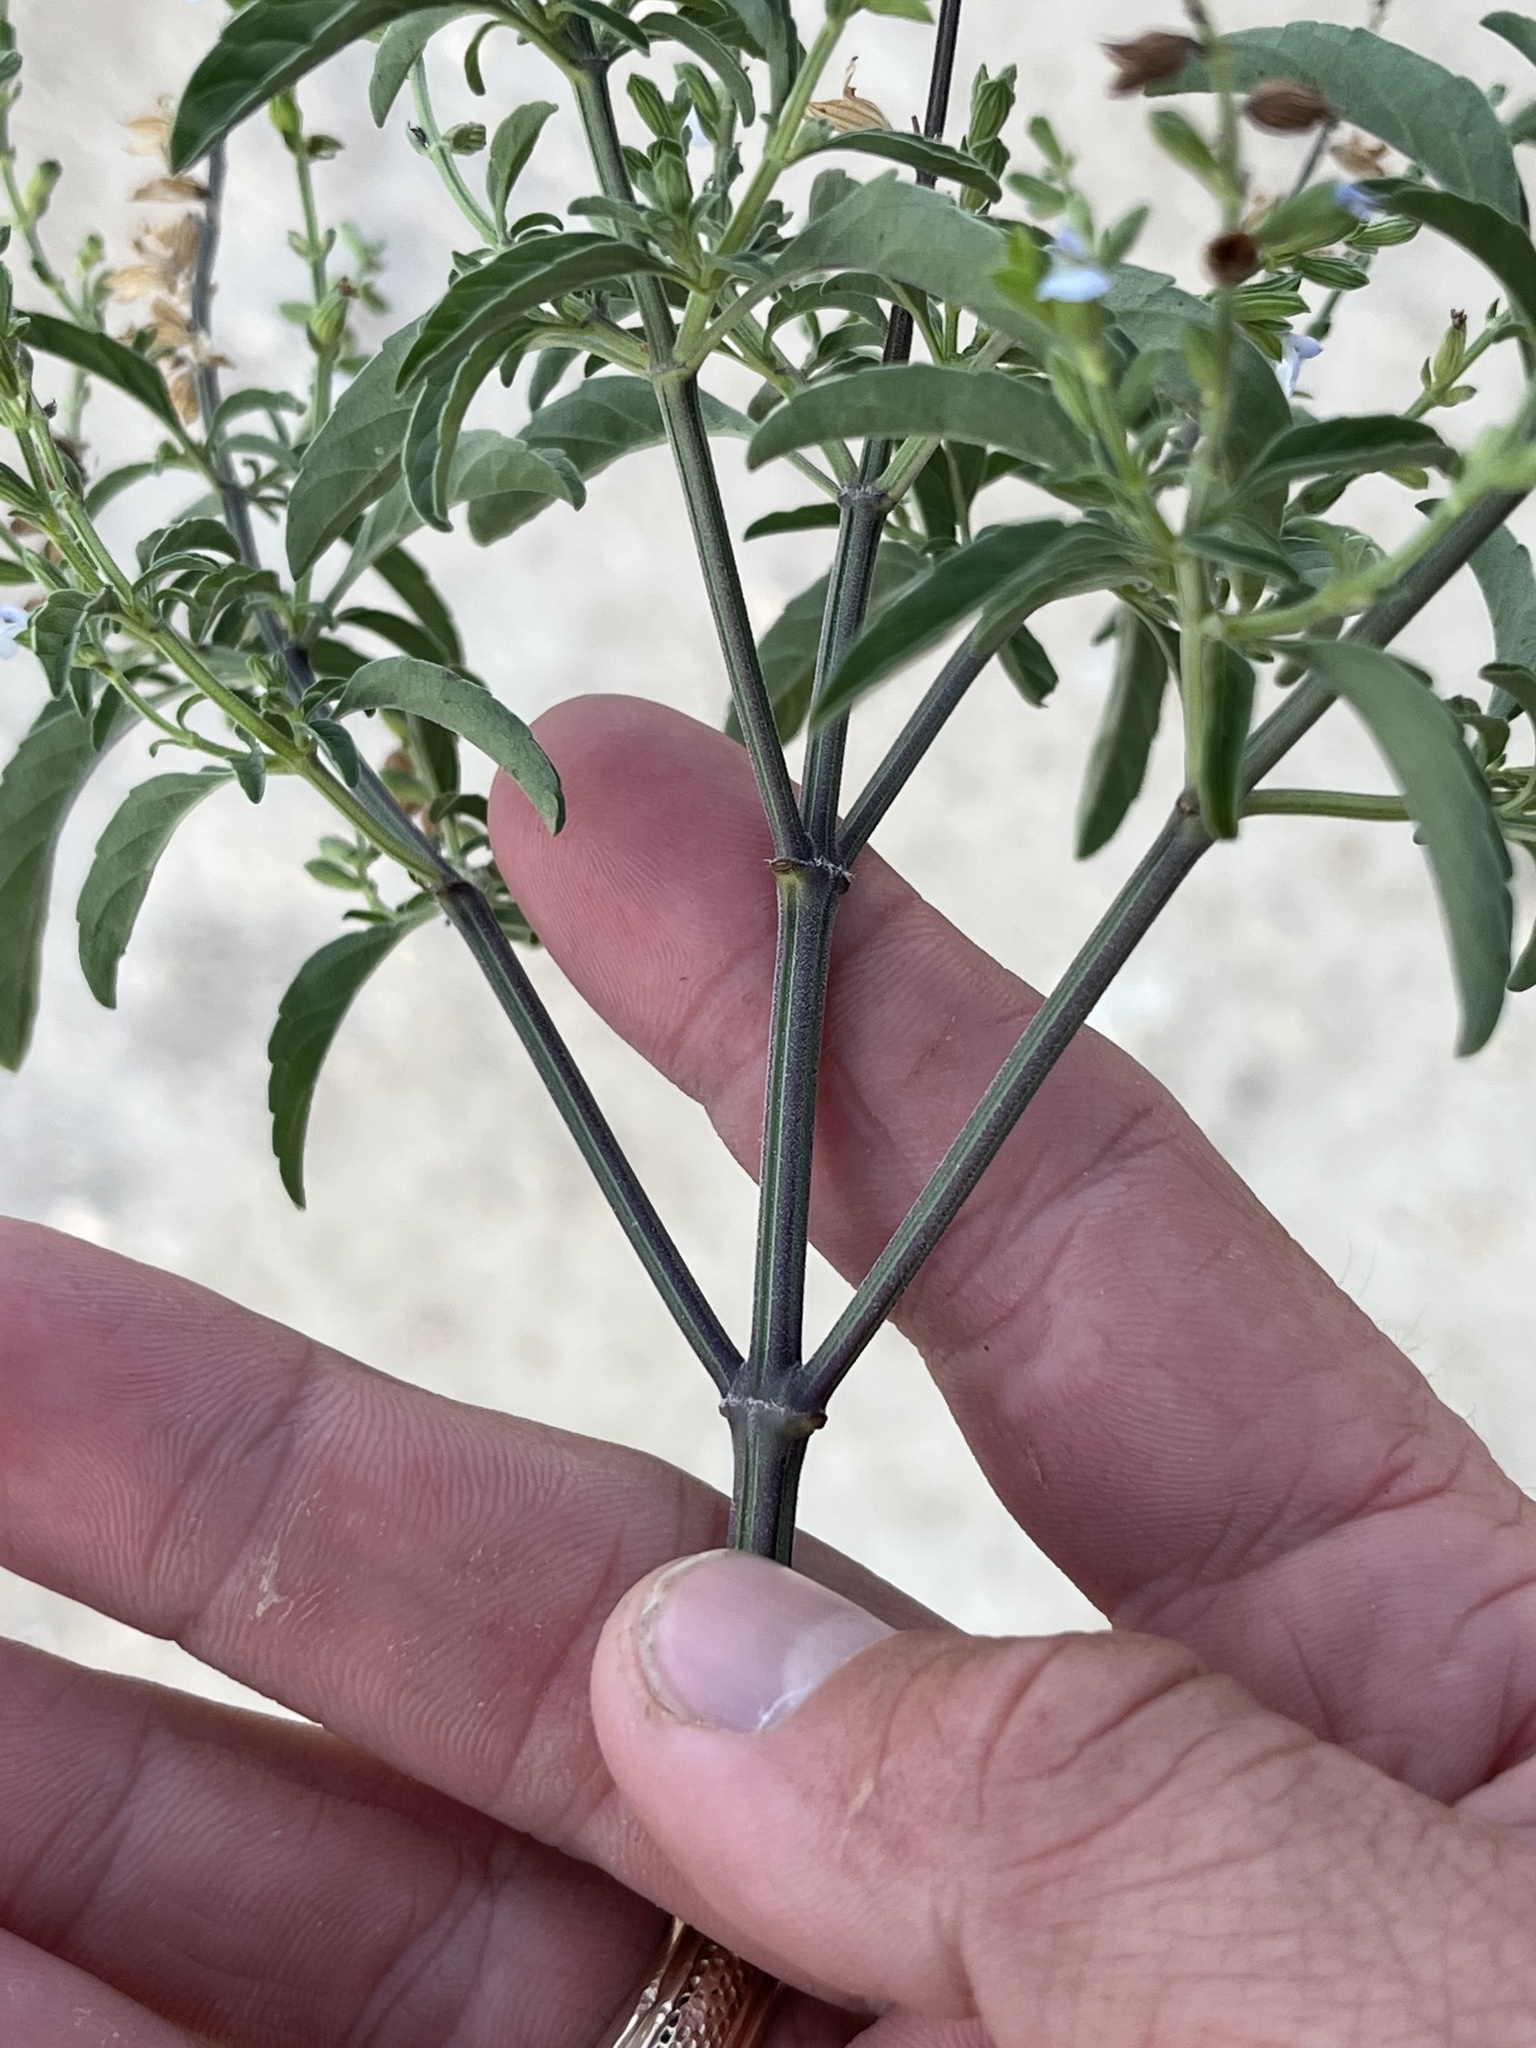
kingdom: Plantae
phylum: Tracheophyta
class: Magnoliopsida
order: Lamiales
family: Lamiaceae
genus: Salvia
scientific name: Salvia reflexa
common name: Mintweed
